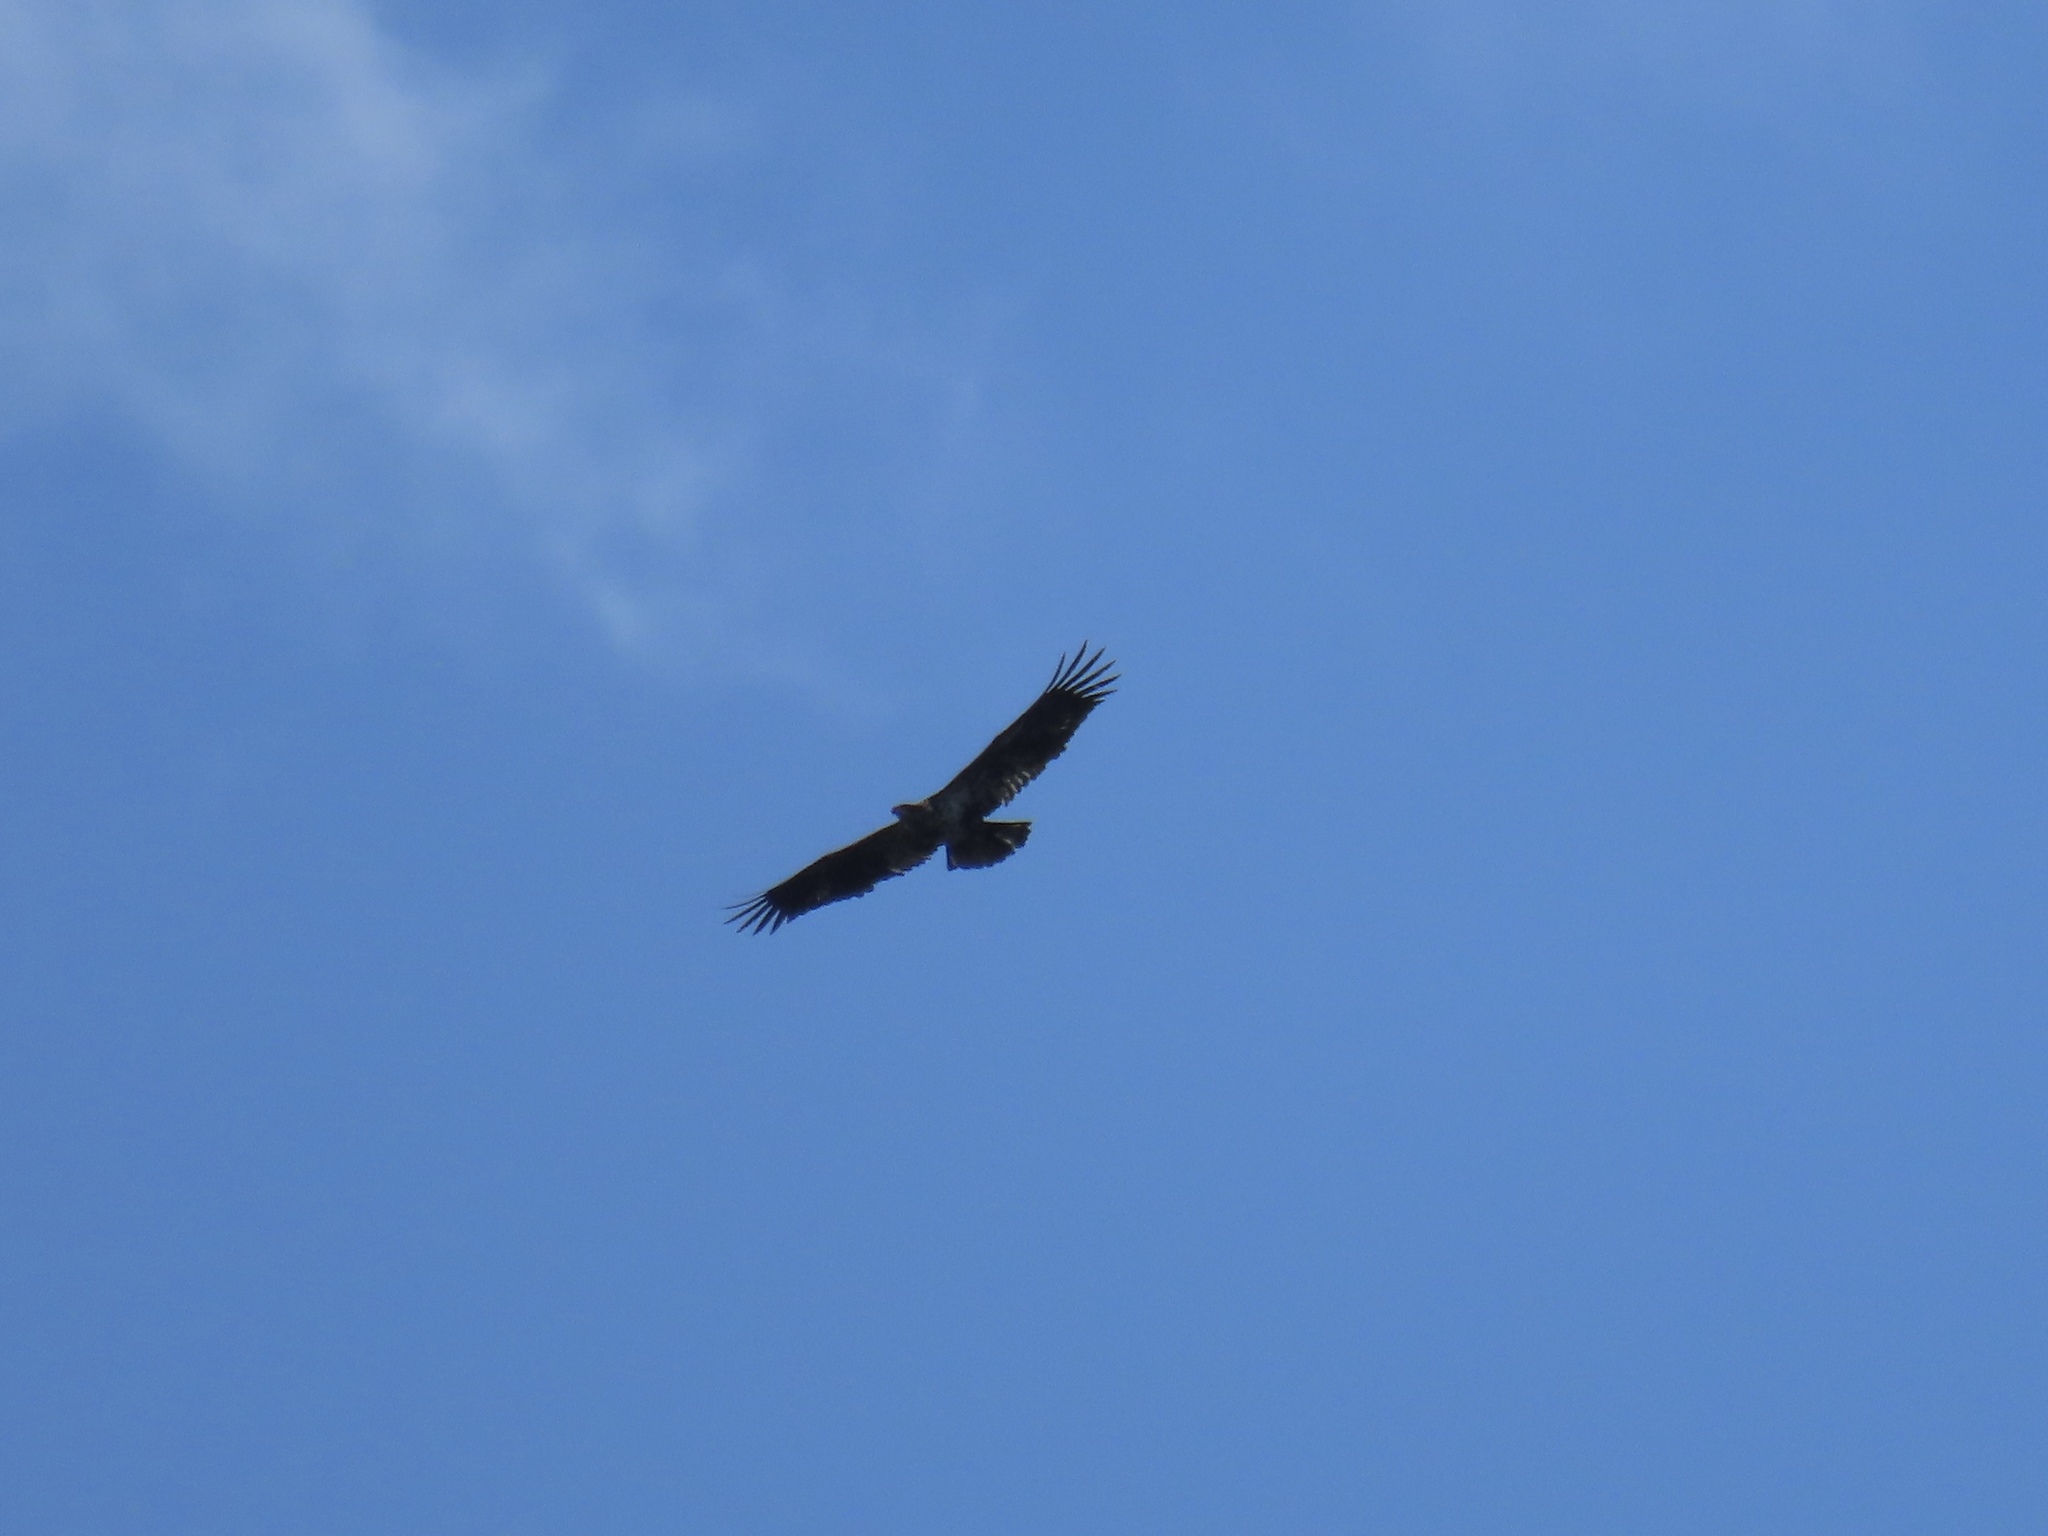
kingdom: Animalia
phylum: Chordata
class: Aves
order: Accipitriformes
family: Accipitridae
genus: Haliaeetus
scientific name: Haliaeetus leucocephalus
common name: Bald eagle
